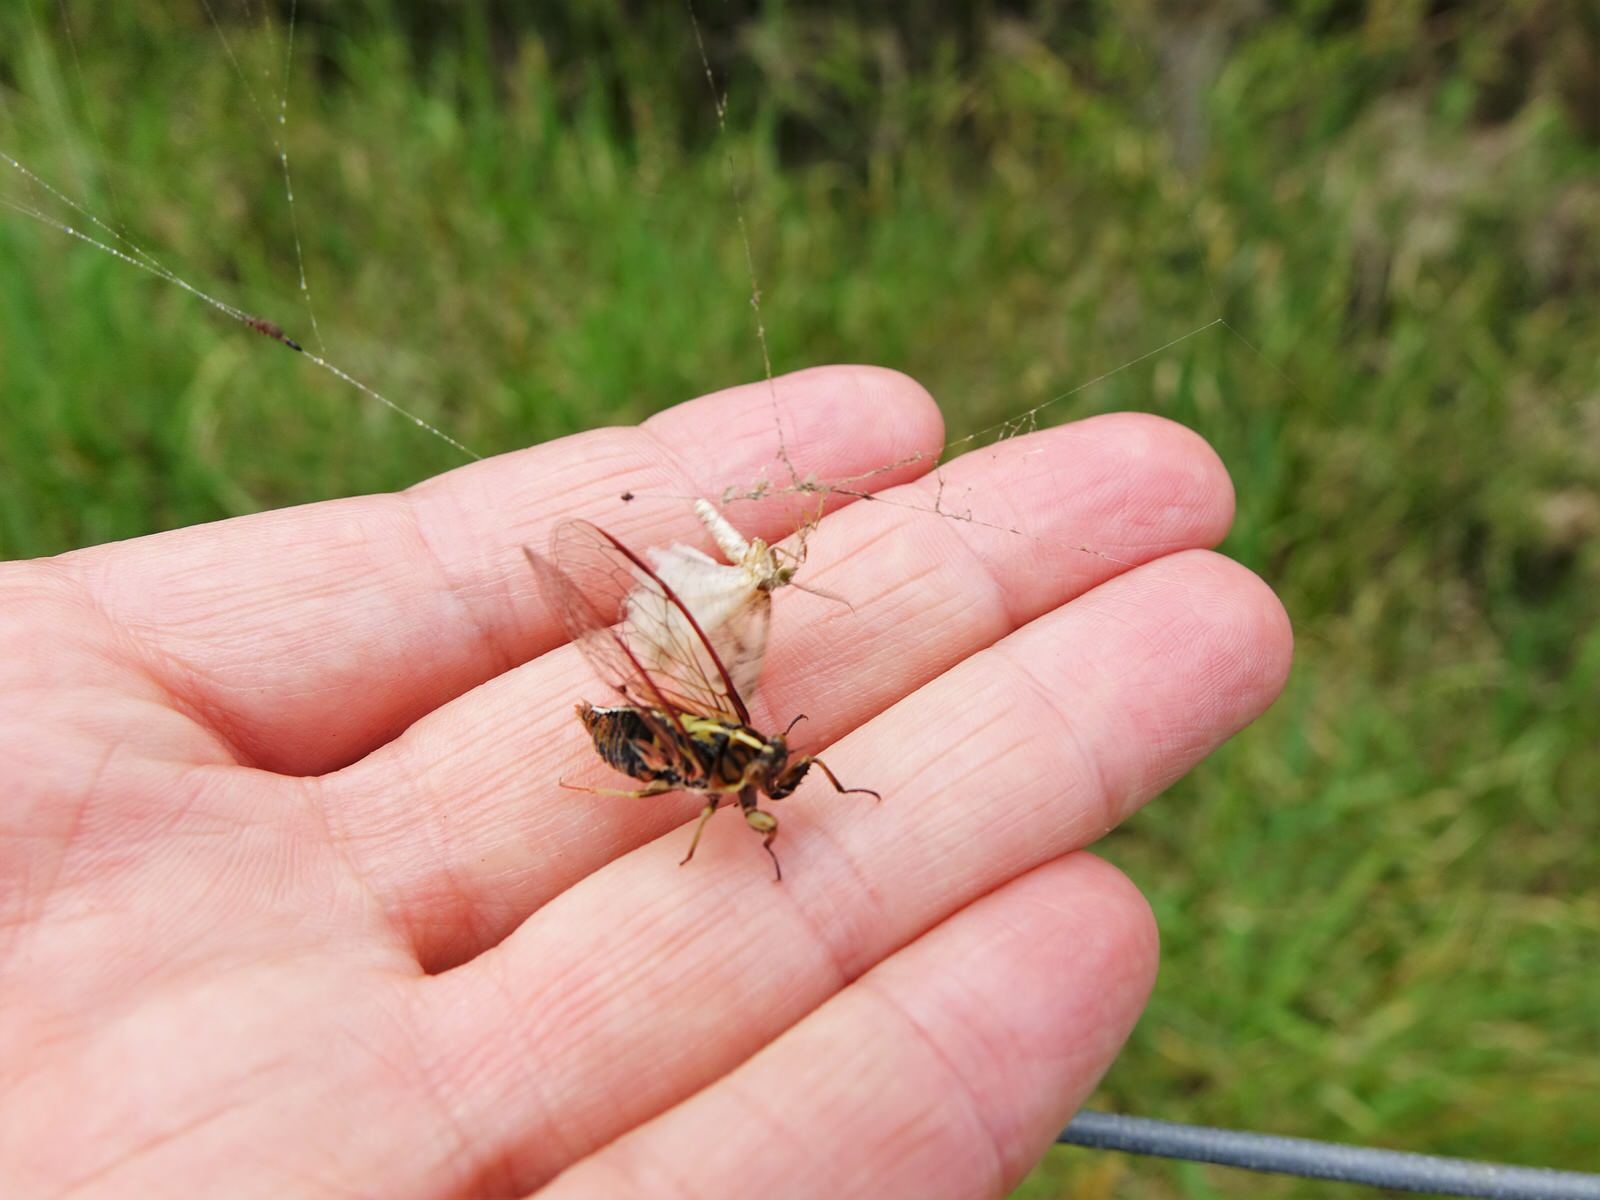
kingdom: Animalia
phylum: Arthropoda
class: Insecta
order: Hemiptera
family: Cicadidae
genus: Kikihia
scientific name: Kikihia muta
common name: Variable cicada
